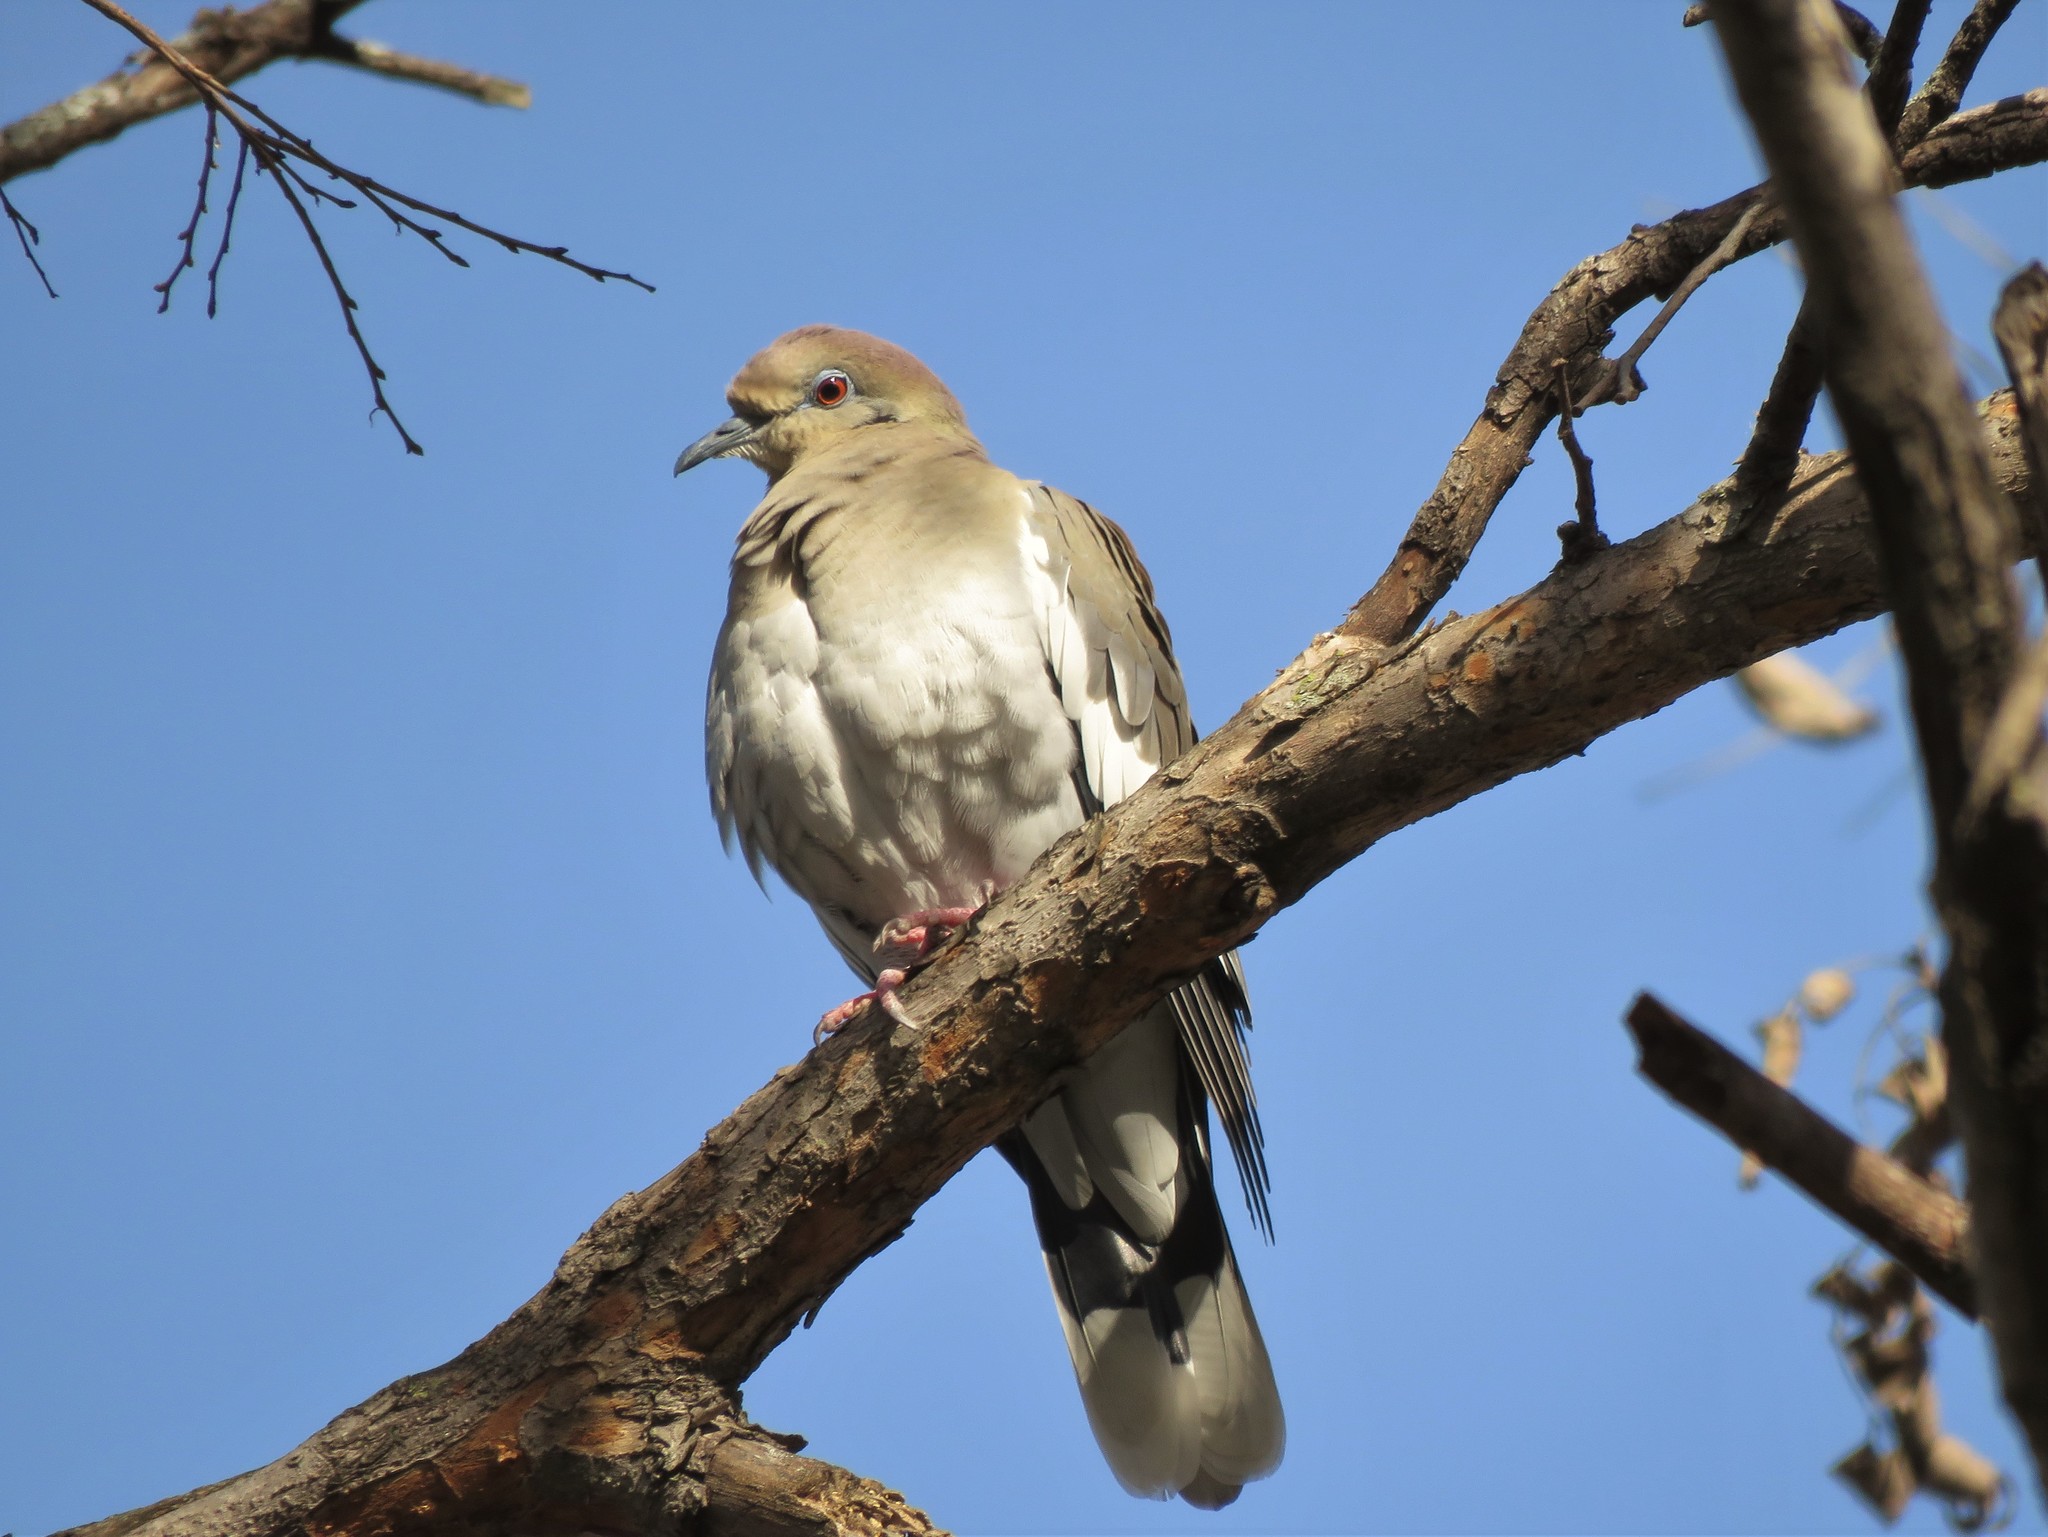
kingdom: Animalia
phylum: Chordata
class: Aves
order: Columbiformes
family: Columbidae
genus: Zenaida
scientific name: Zenaida asiatica
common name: White-winged dove
